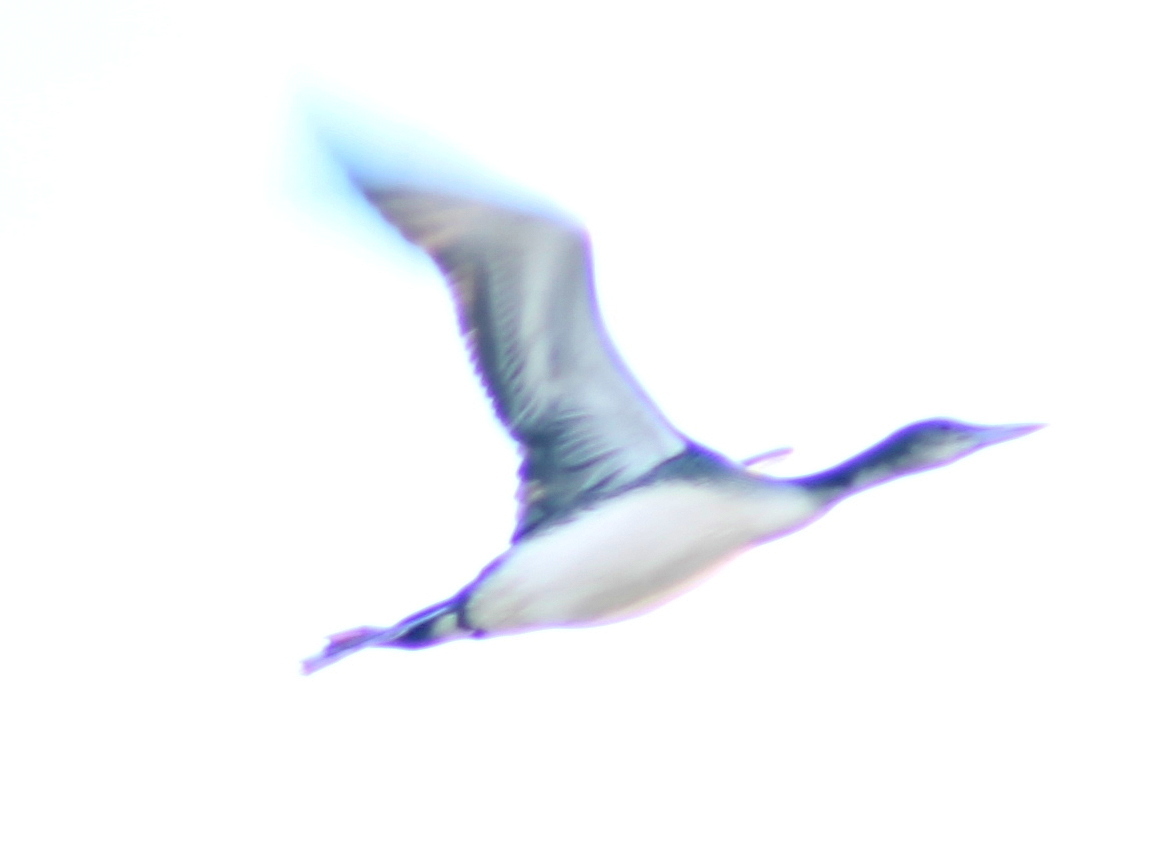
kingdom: Animalia
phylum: Chordata
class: Aves
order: Gaviiformes
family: Gaviidae
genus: Gavia
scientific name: Gavia immer
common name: Common loon
